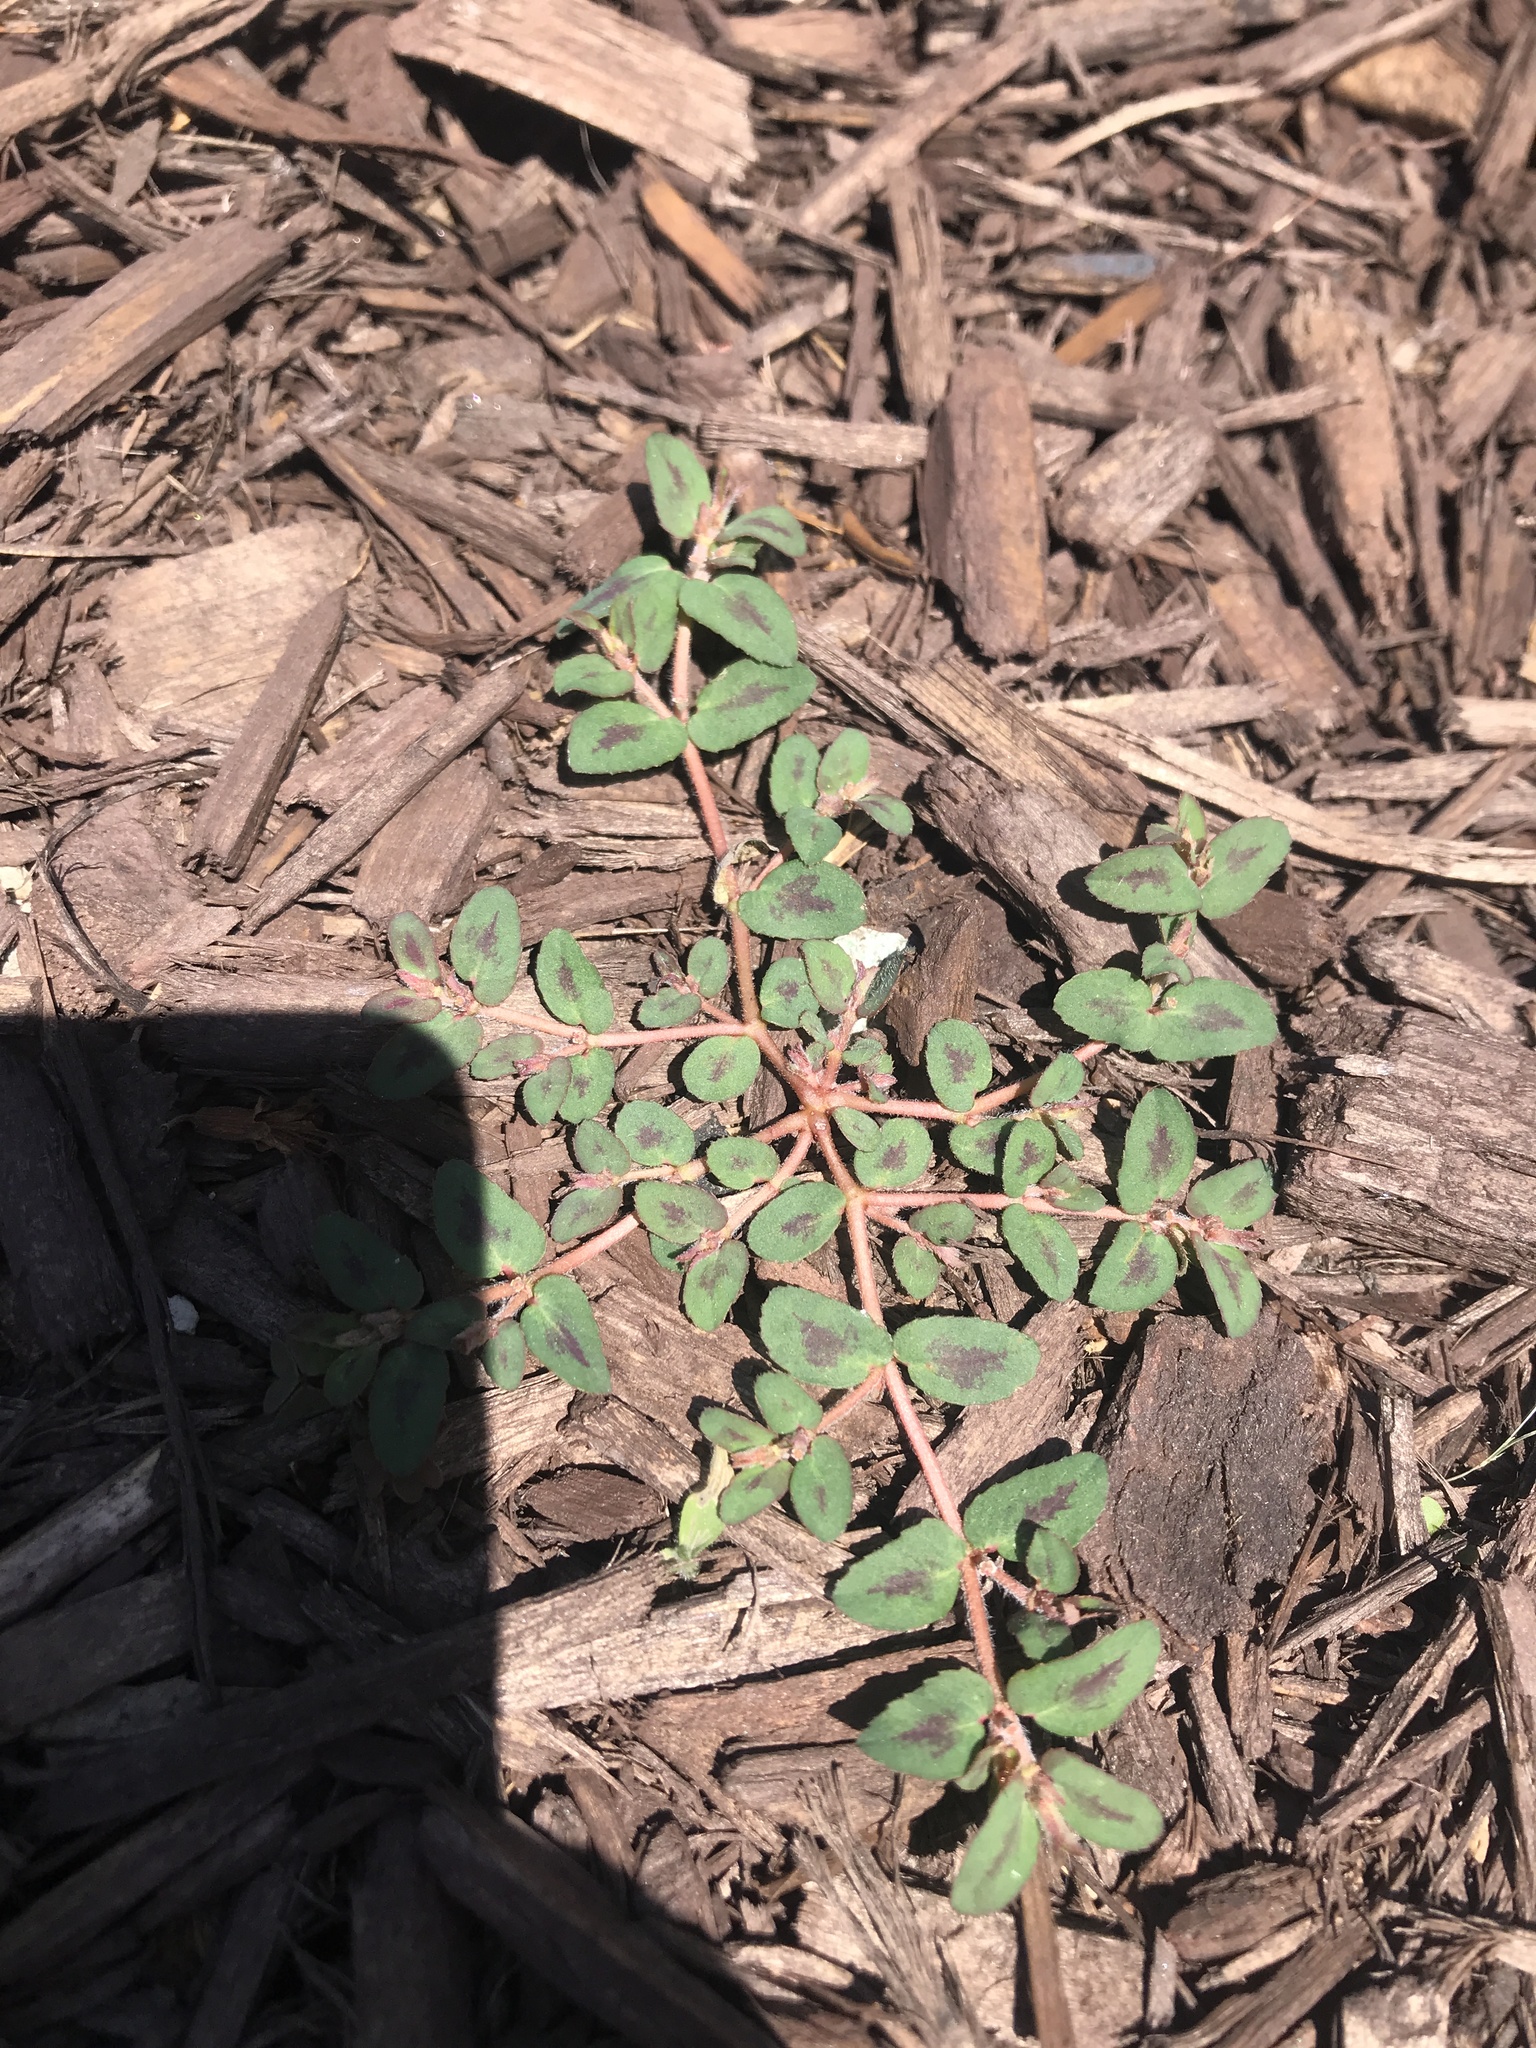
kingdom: Plantae
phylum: Tracheophyta
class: Magnoliopsida
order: Malpighiales
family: Euphorbiaceae
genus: Euphorbia
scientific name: Euphorbia maculata
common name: Spotted spurge
